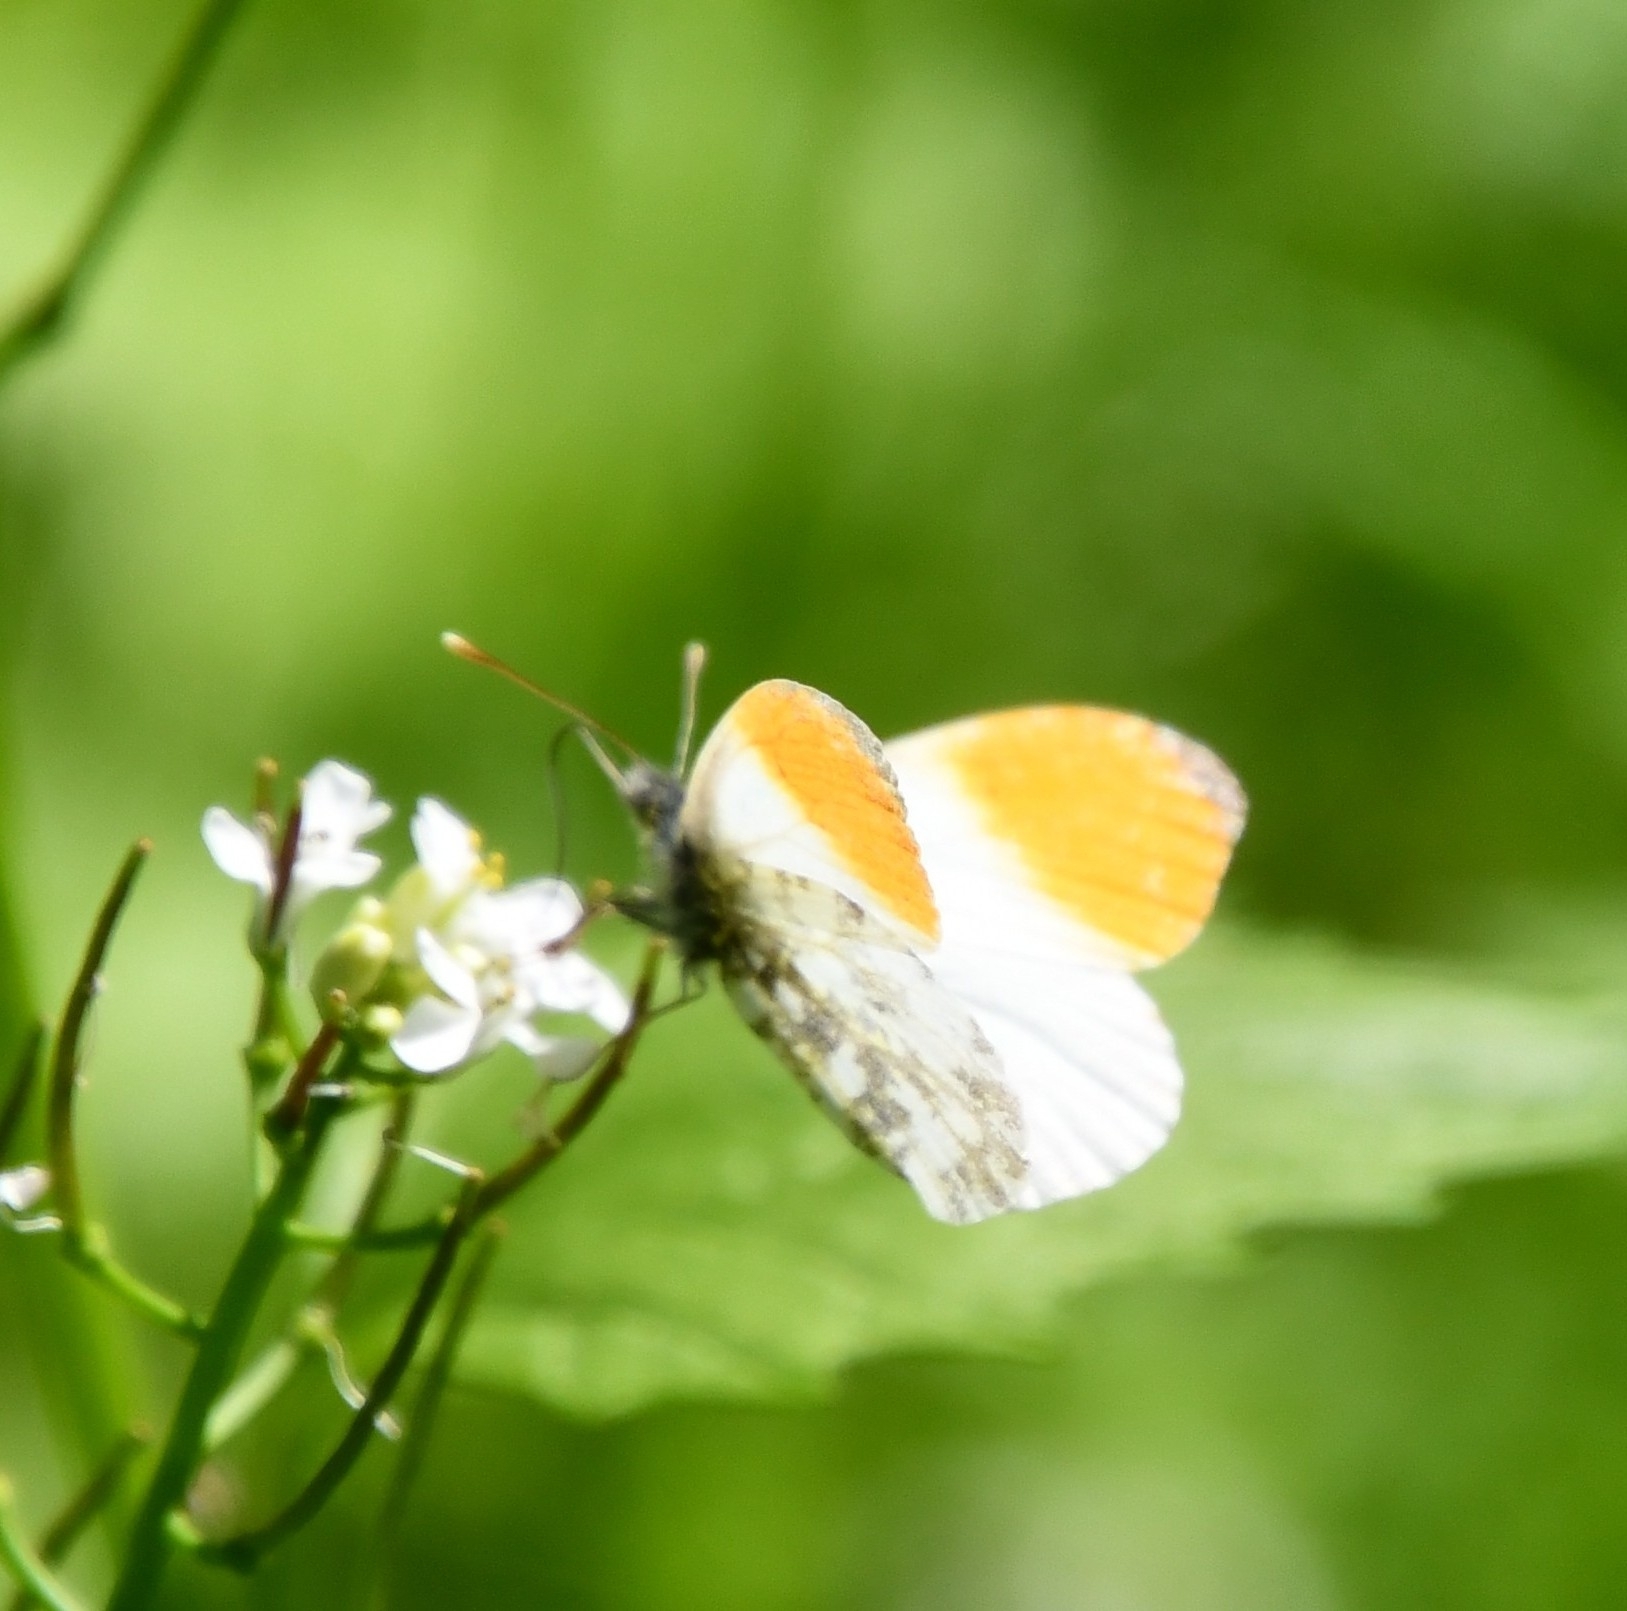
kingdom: Animalia
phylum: Arthropoda
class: Insecta
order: Lepidoptera
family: Pieridae
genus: Anthocharis
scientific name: Anthocharis cardamines
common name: Orange-tip
